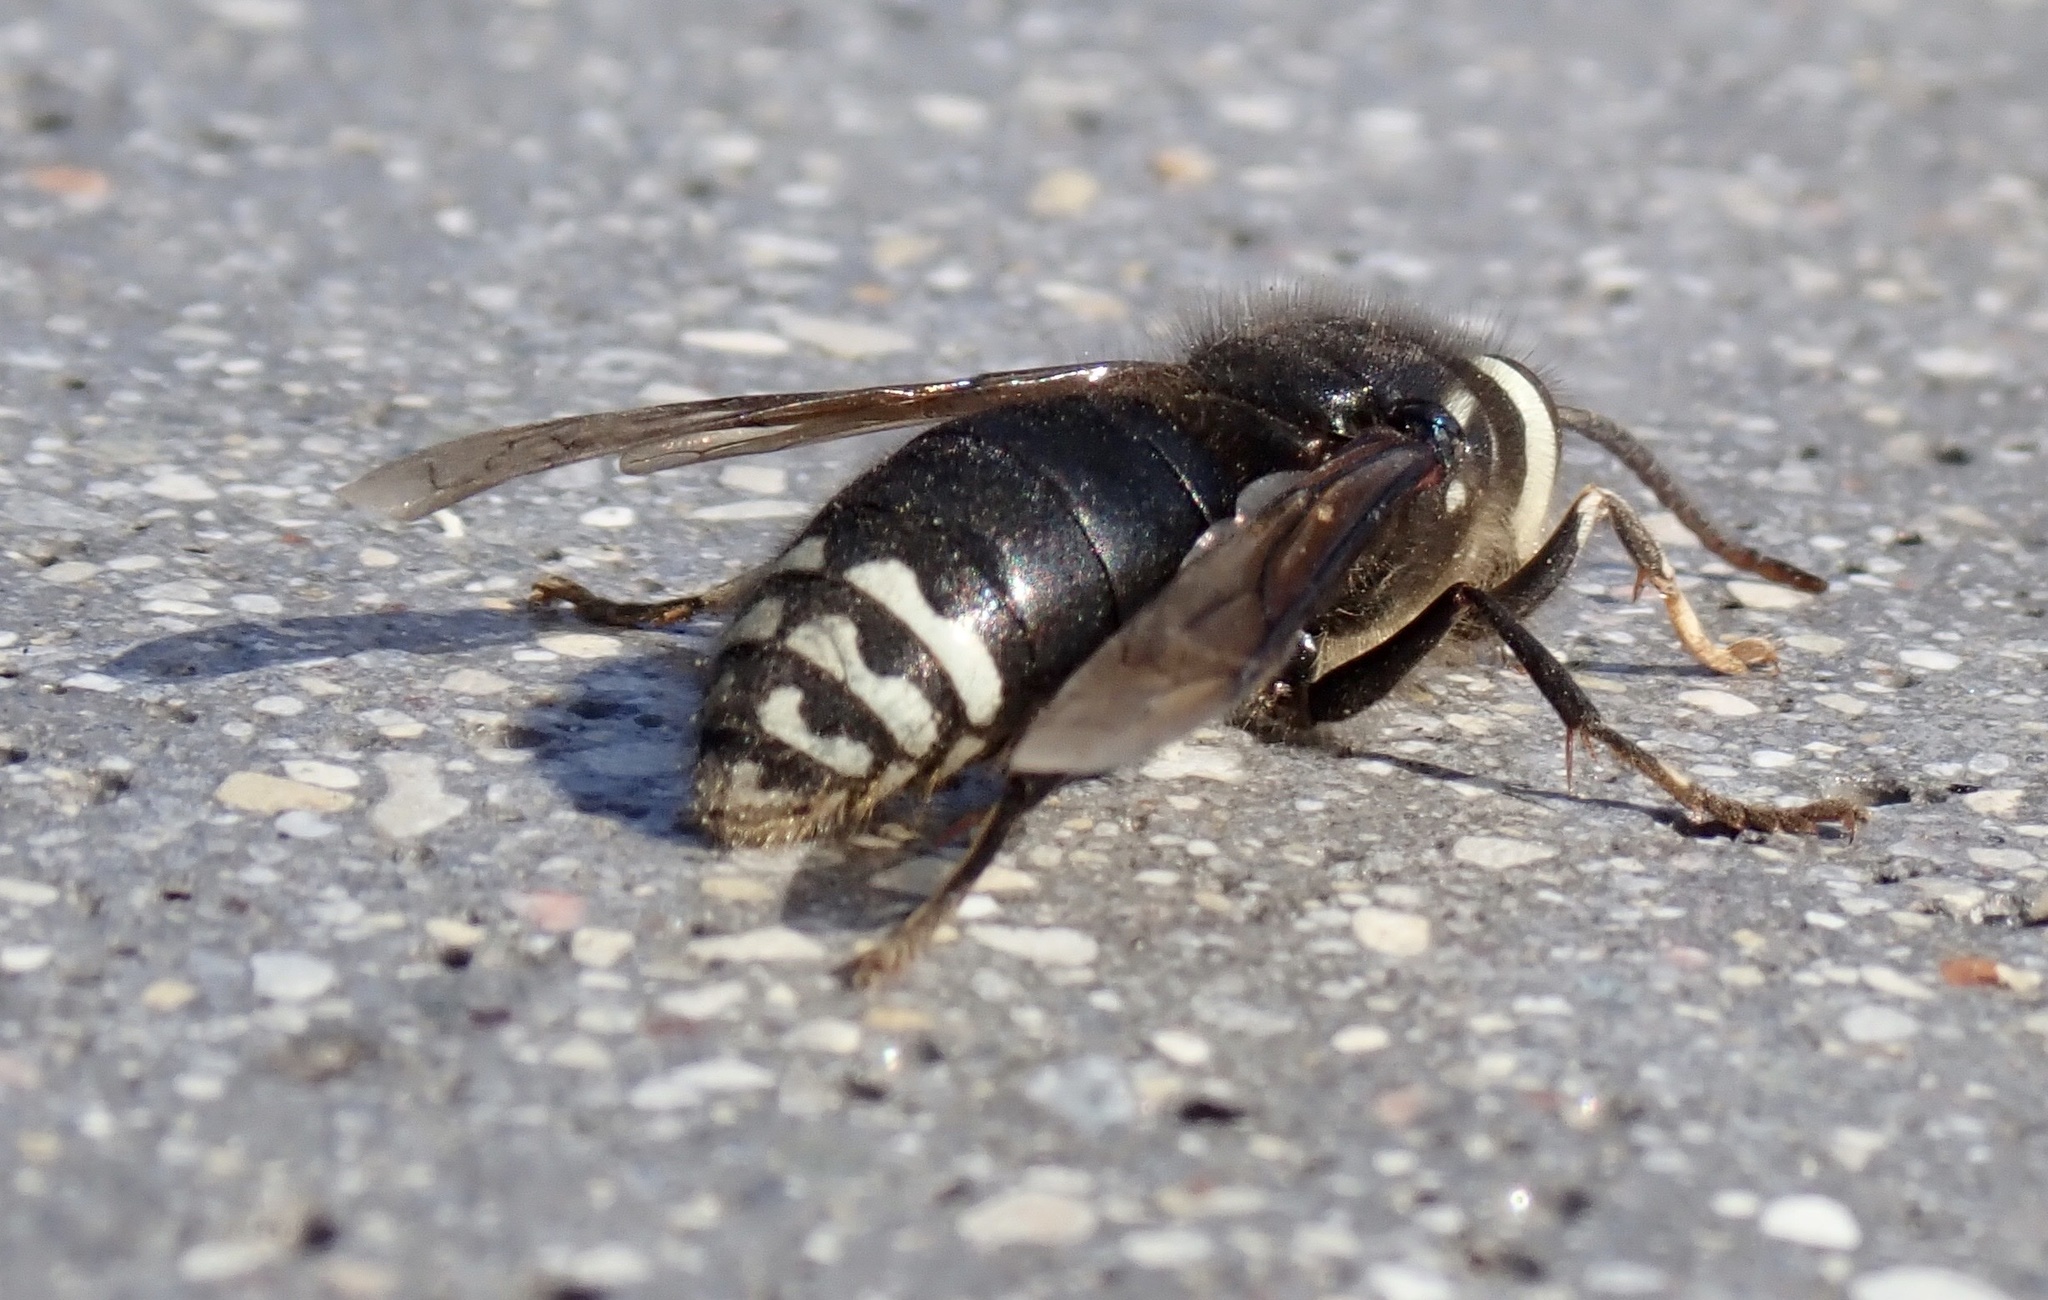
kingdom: Animalia
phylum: Arthropoda
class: Insecta
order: Hymenoptera
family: Vespidae
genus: Dolichovespula
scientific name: Dolichovespula maculata
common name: Bald-faced hornet
